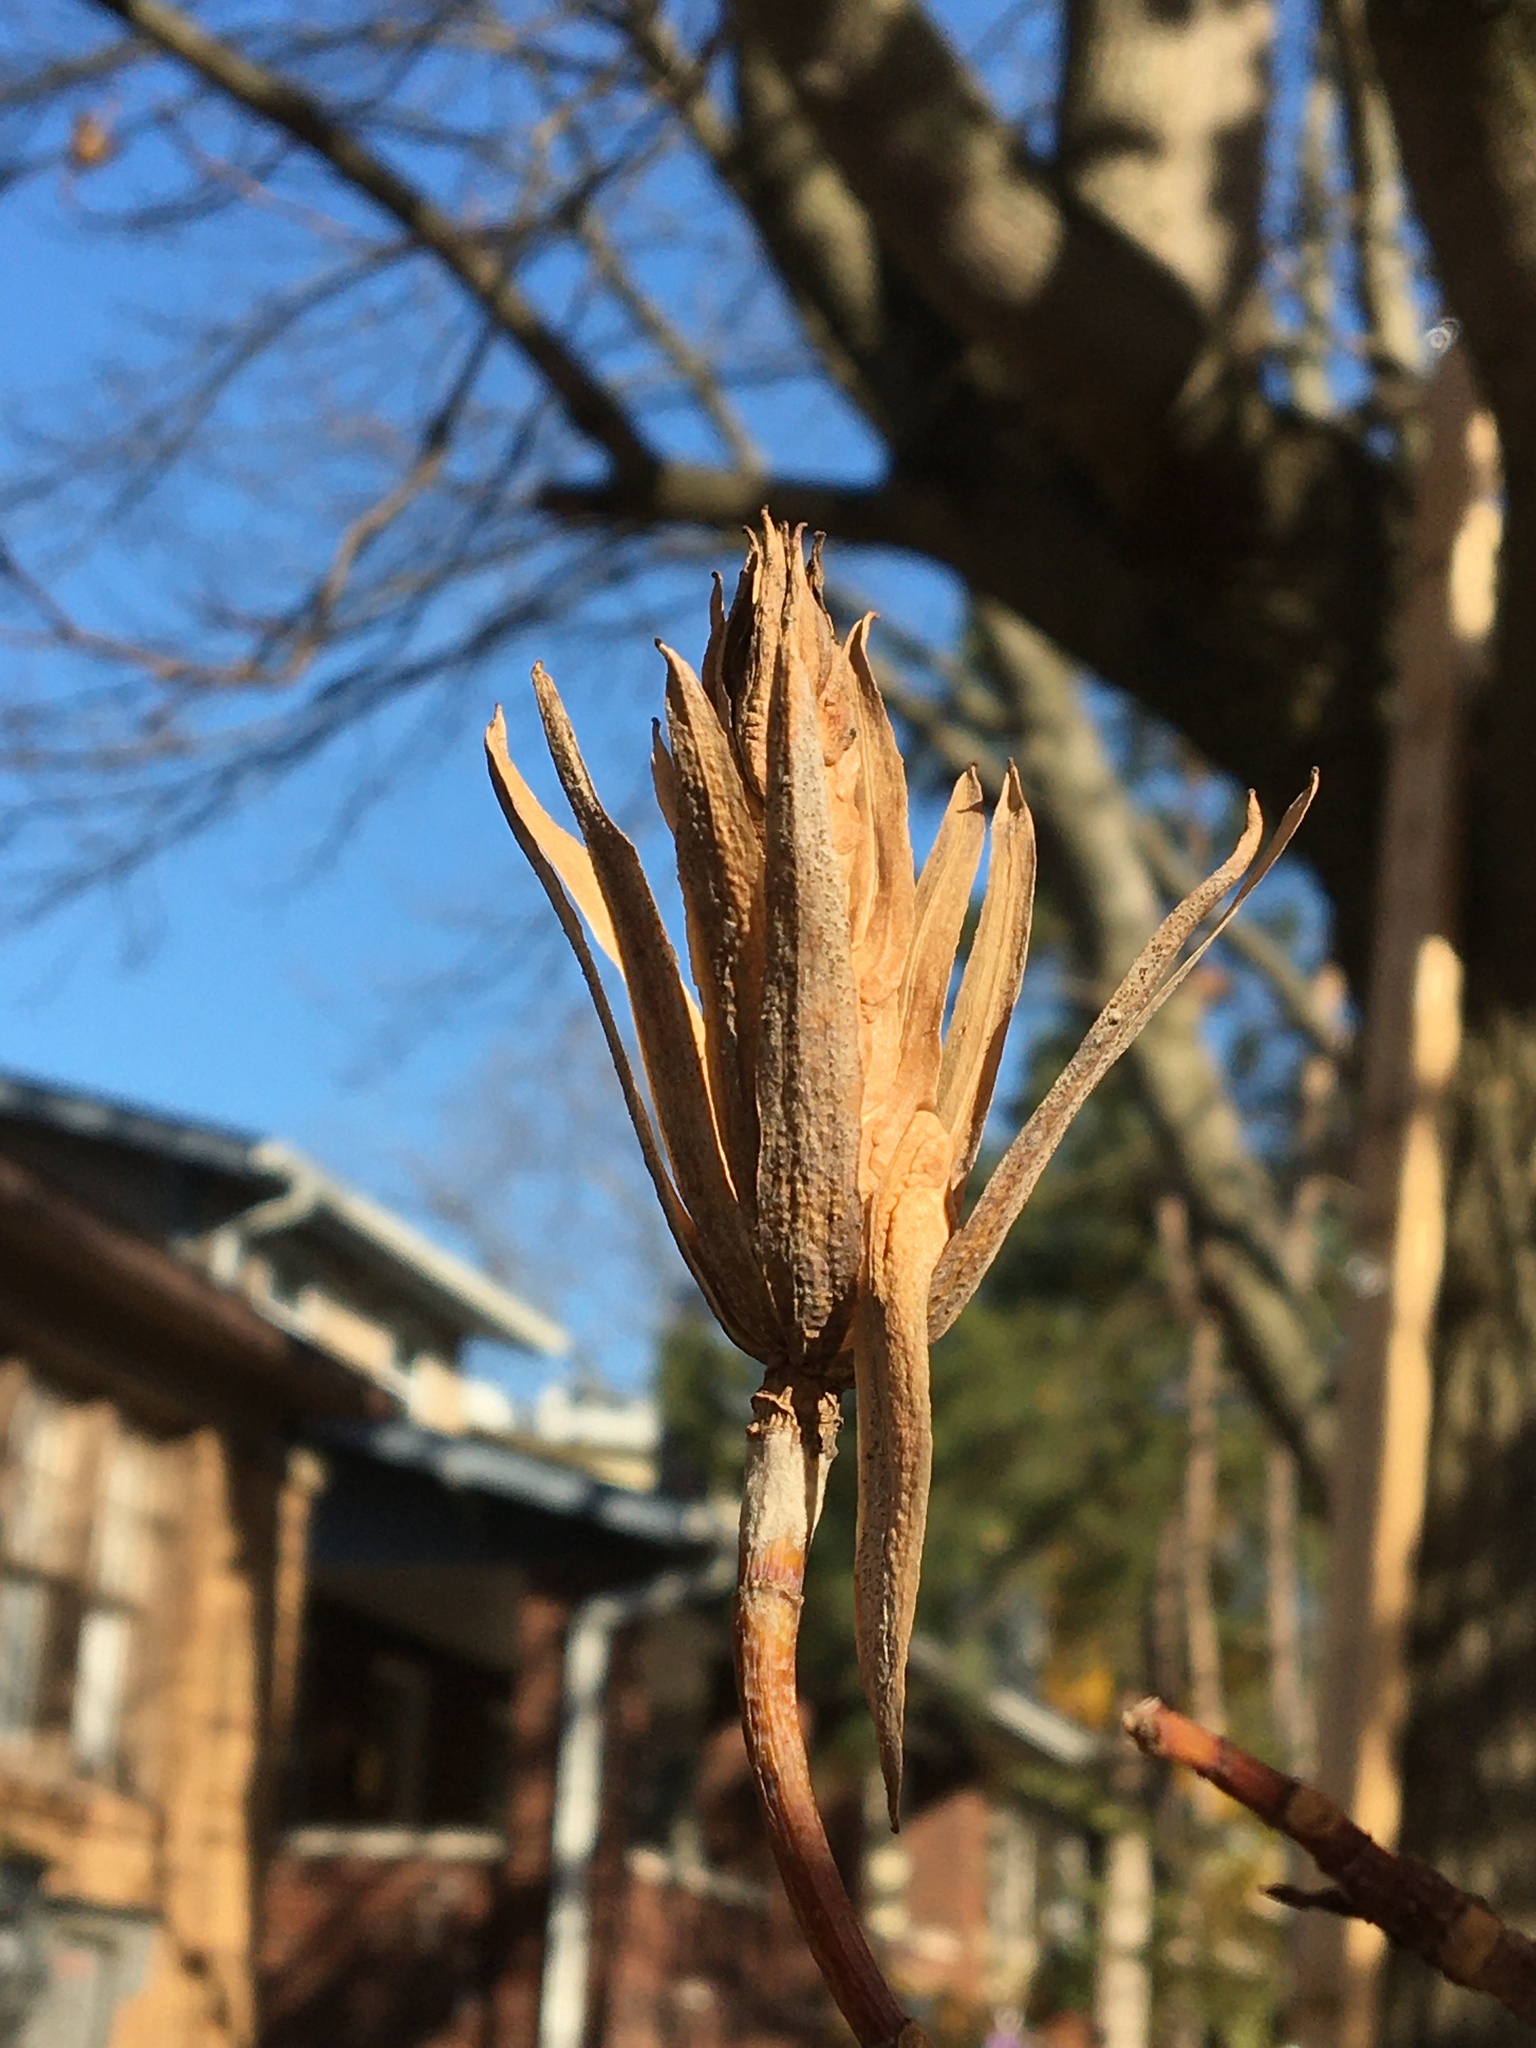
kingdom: Plantae
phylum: Tracheophyta
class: Magnoliopsida
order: Magnoliales
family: Magnoliaceae
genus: Liriodendron
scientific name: Liriodendron tulipifera
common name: Tulip tree
